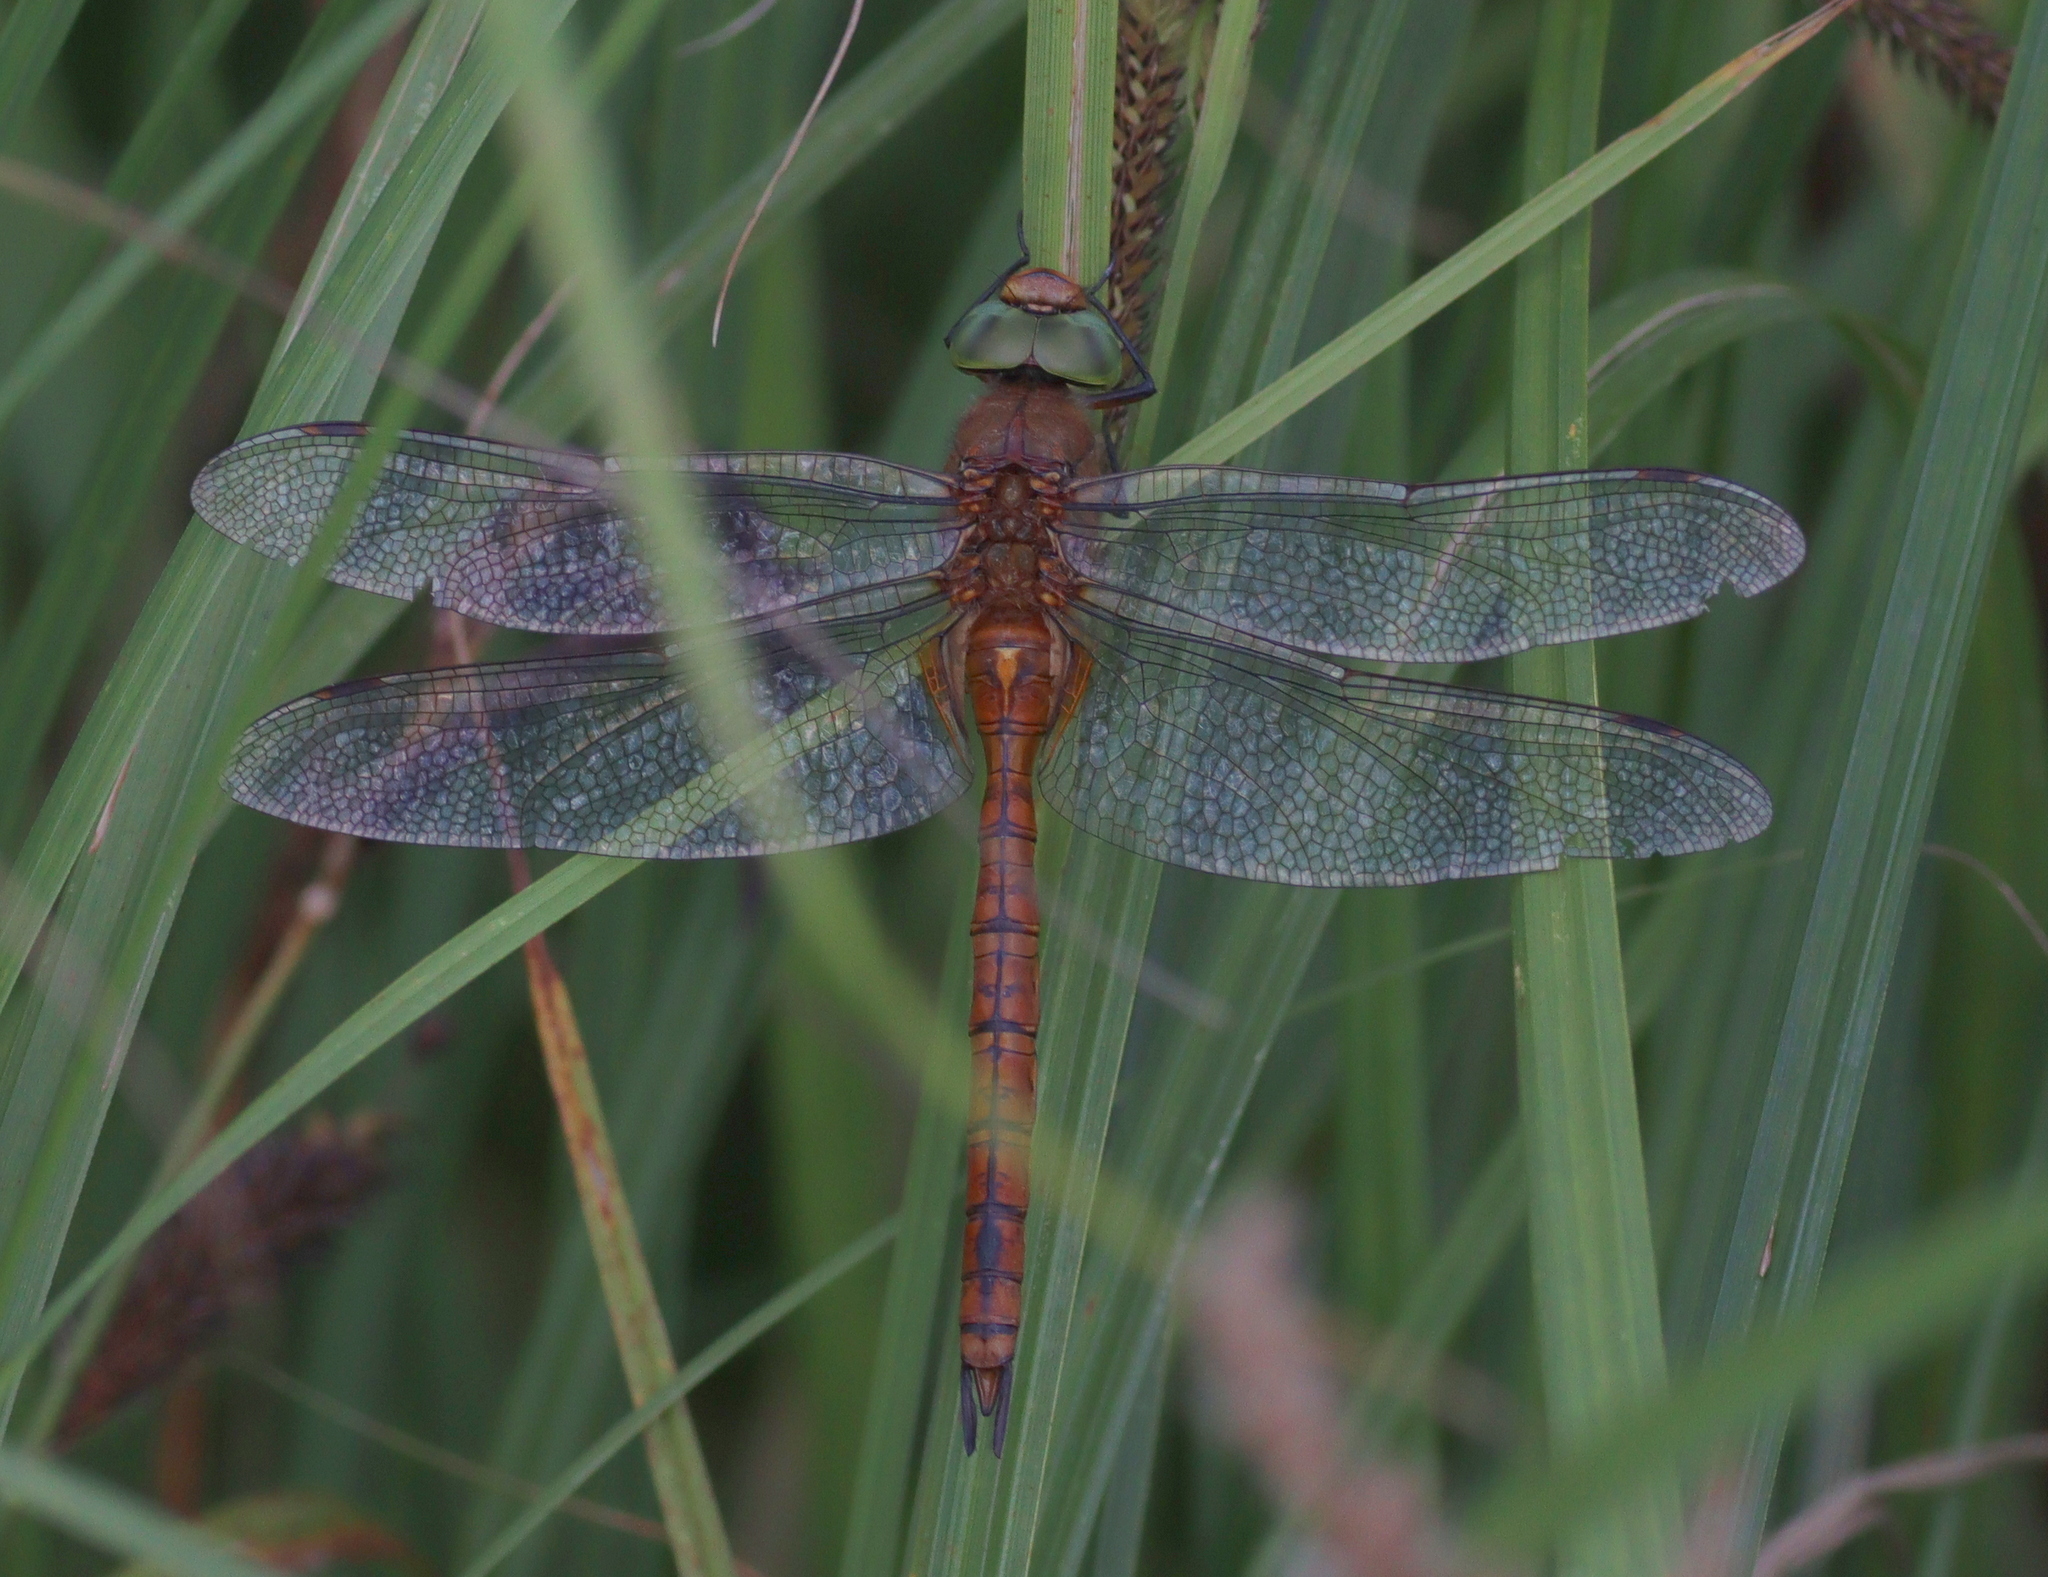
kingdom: Animalia
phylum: Arthropoda
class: Insecta
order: Odonata
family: Aeshnidae
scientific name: Aeshnidae
